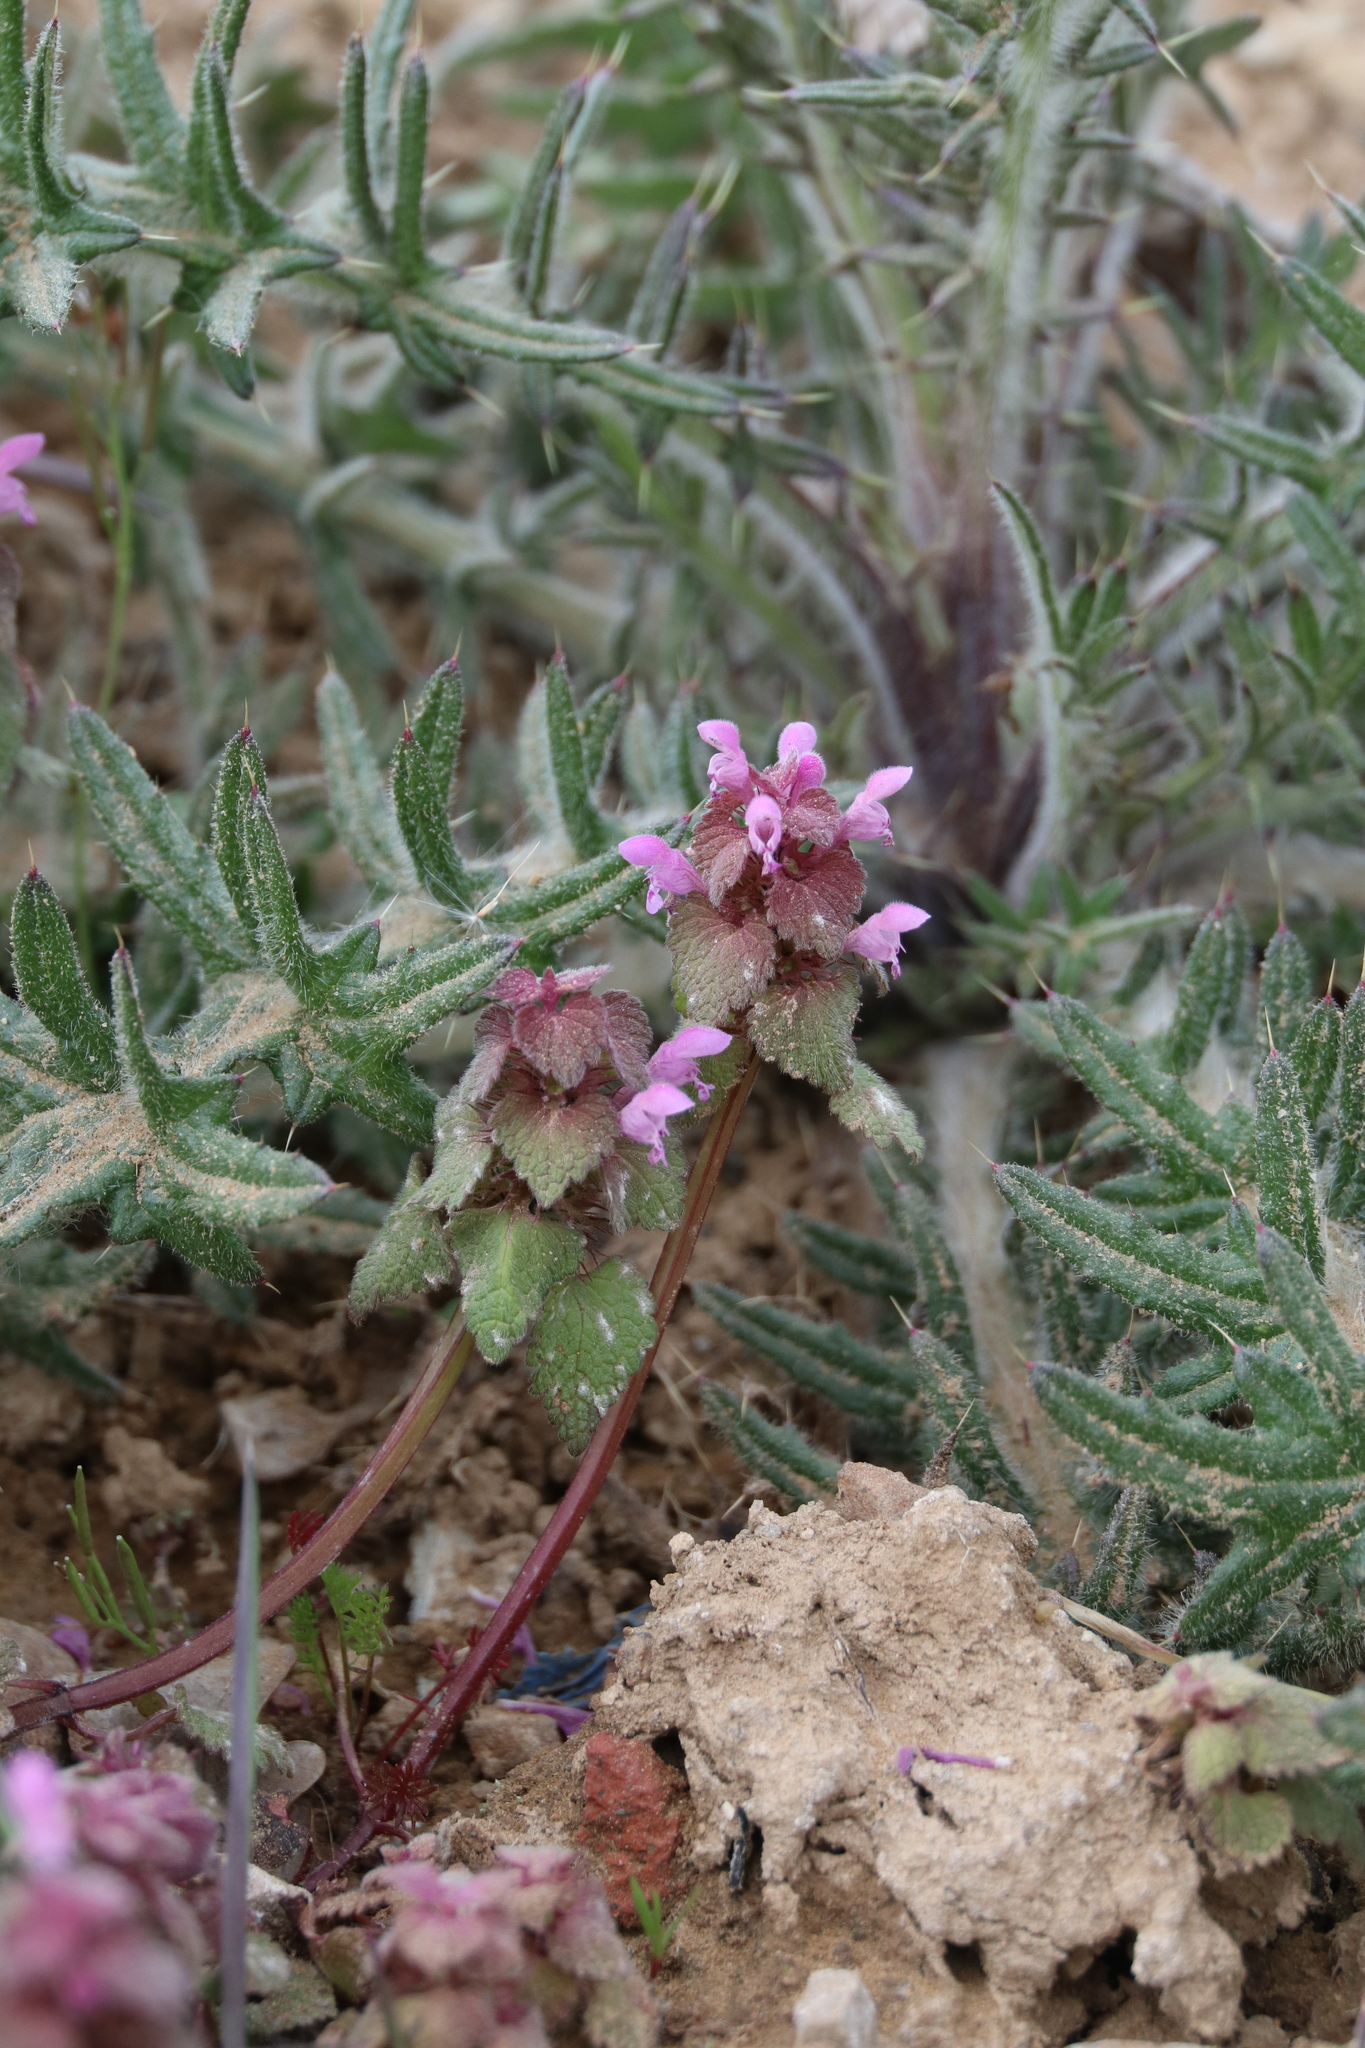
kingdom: Plantae
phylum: Tracheophyta
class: Magnoliopsida
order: Lamiales
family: Lamiaceae
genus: Lamium
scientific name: Lamium purpureum
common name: Red dead-nettle
